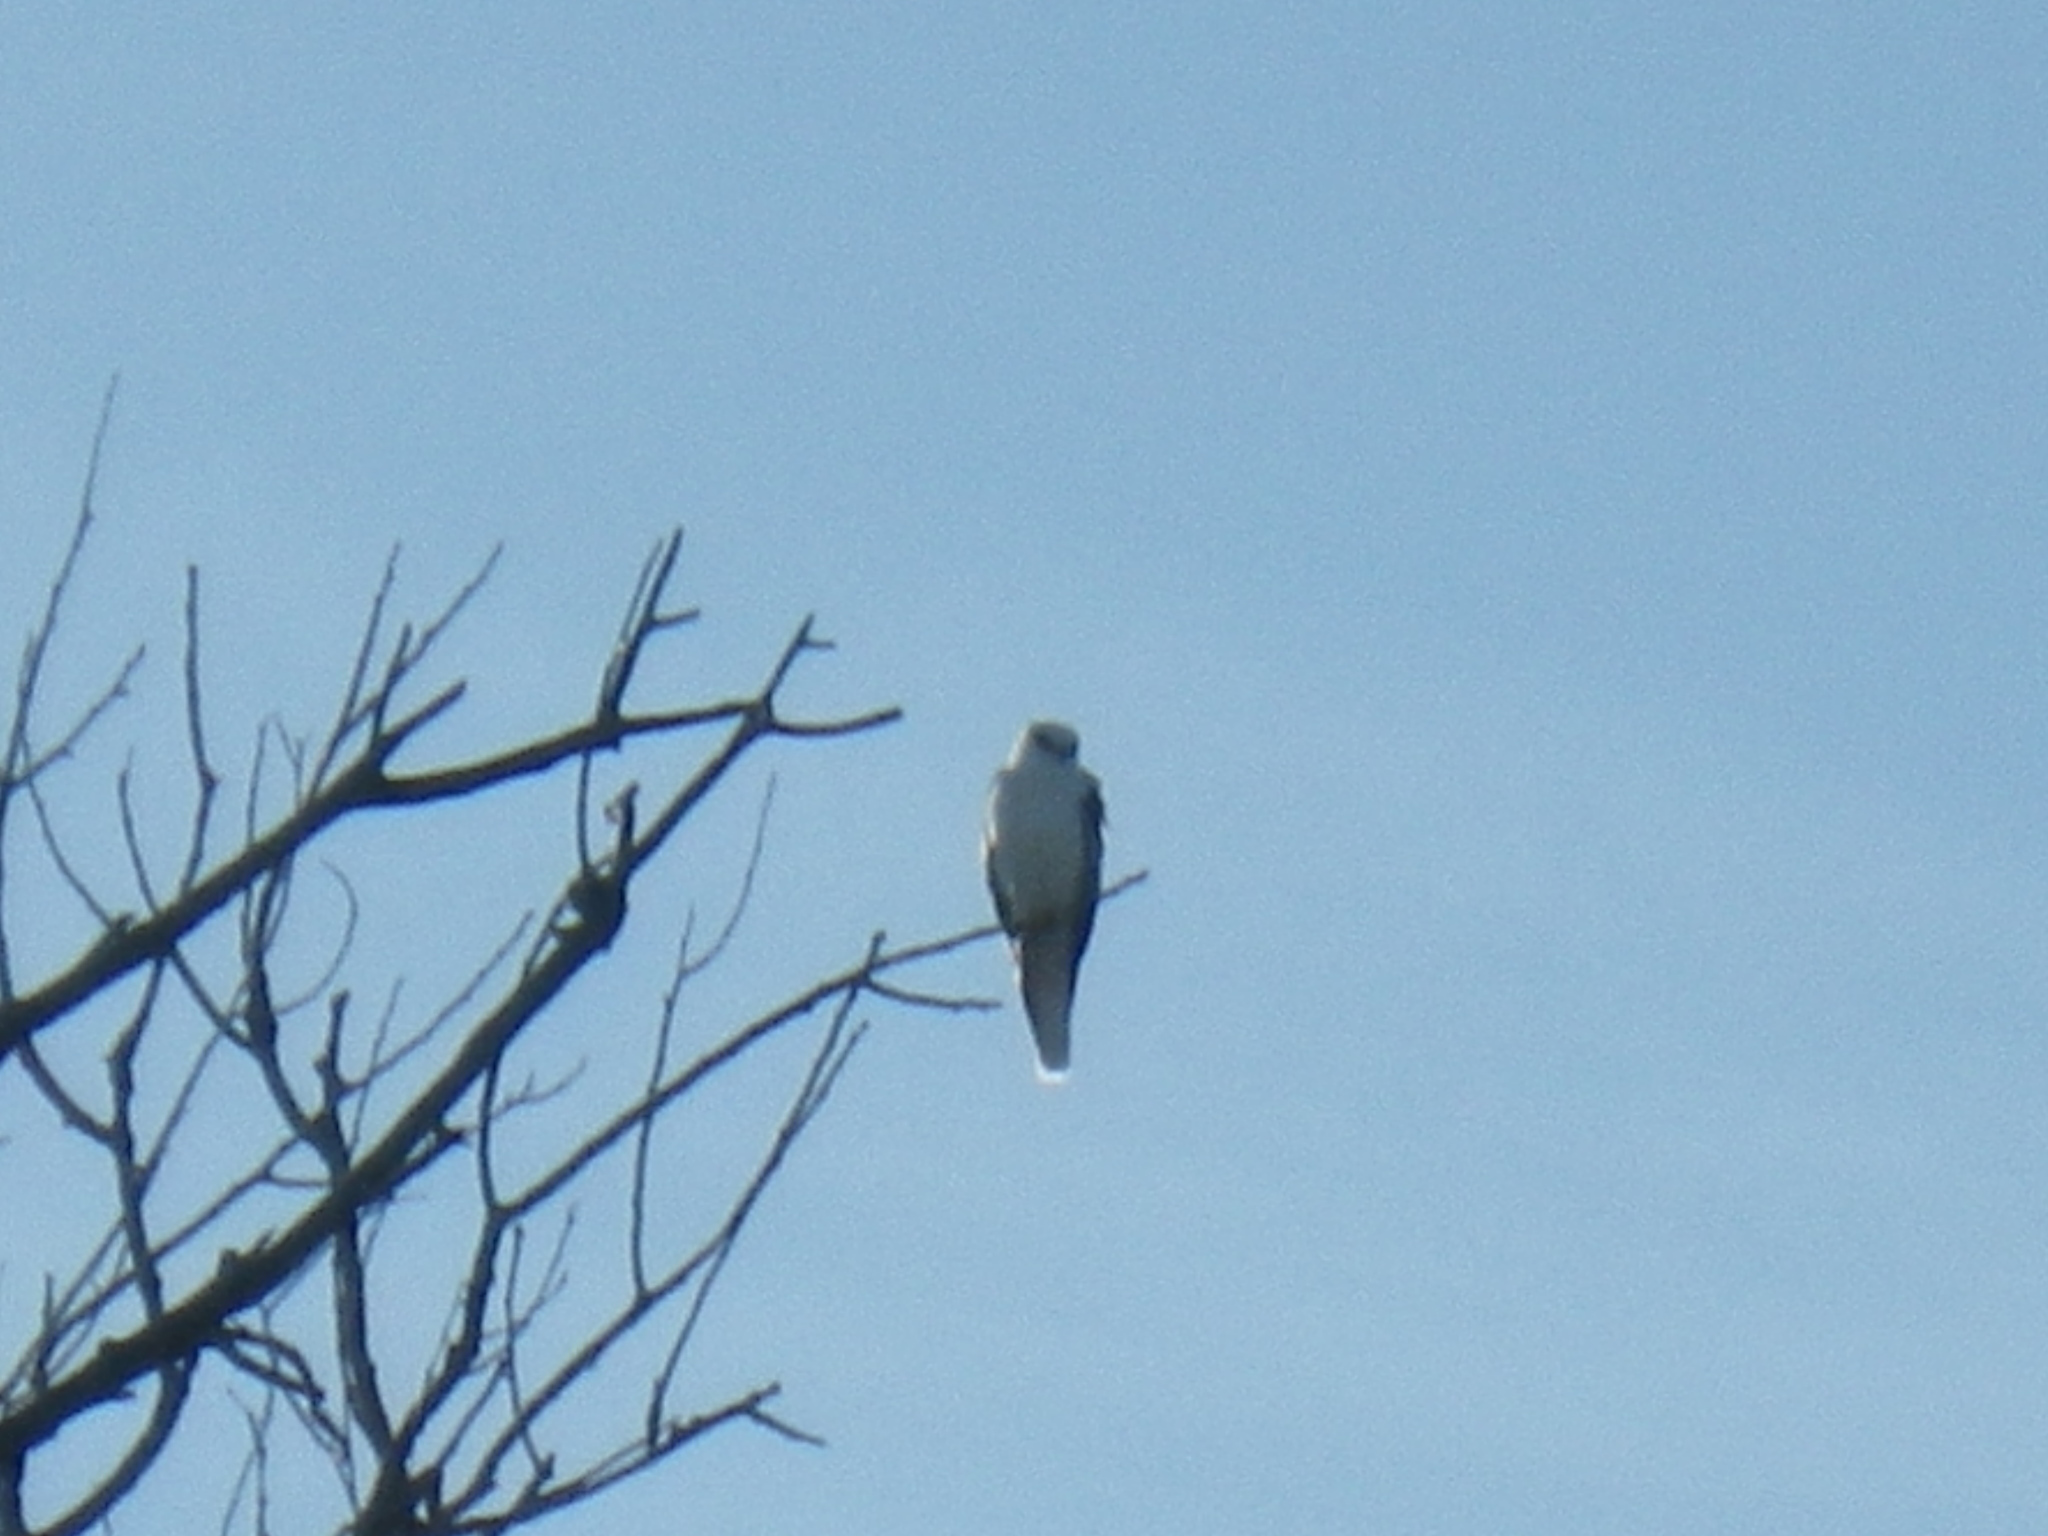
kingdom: Animalia
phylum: Chordata
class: Aves
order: Accipitriformes
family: Accipitridae
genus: Elanus
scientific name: Elanus leucurus
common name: White-tailed kite
